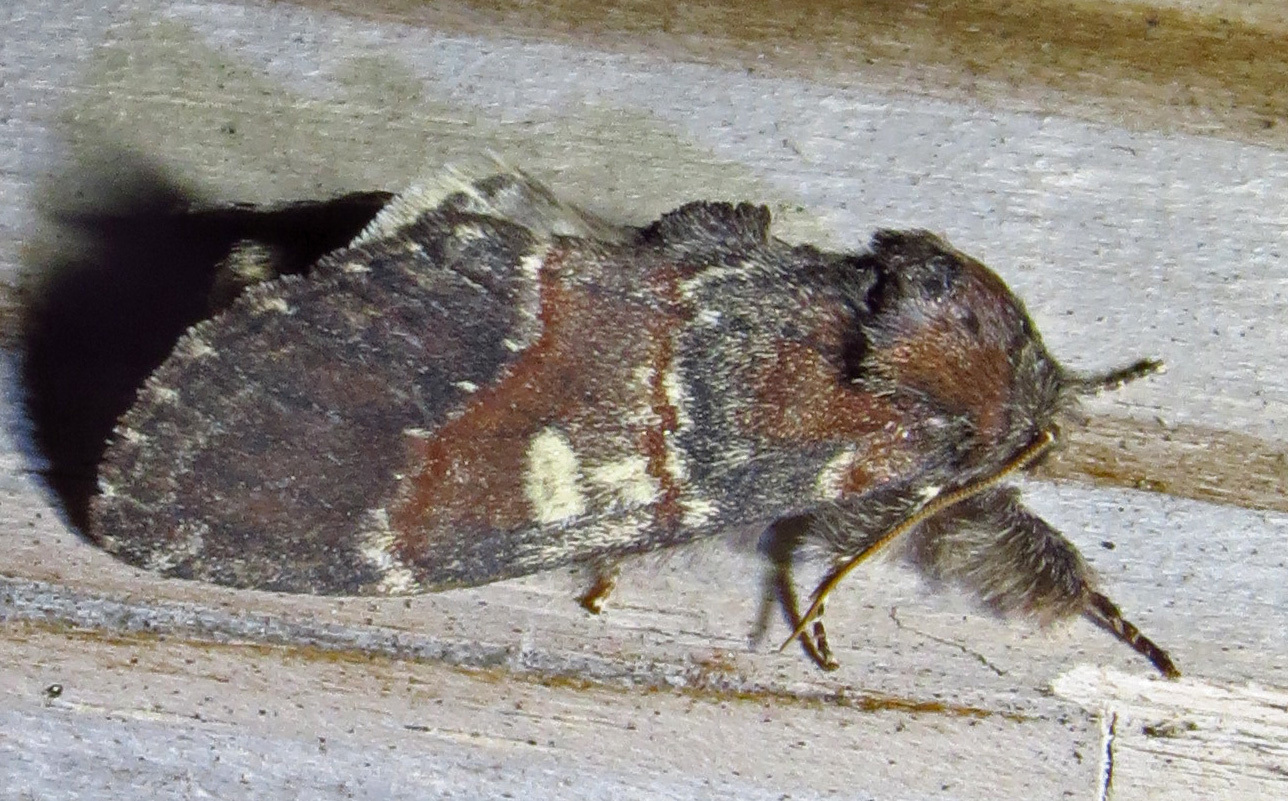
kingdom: Animalia
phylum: Arthropoda
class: Insecta
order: Lepidoptera
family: Notodontidae
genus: Peridea
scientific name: Peridea ferruginea
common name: Chocolate prominent
